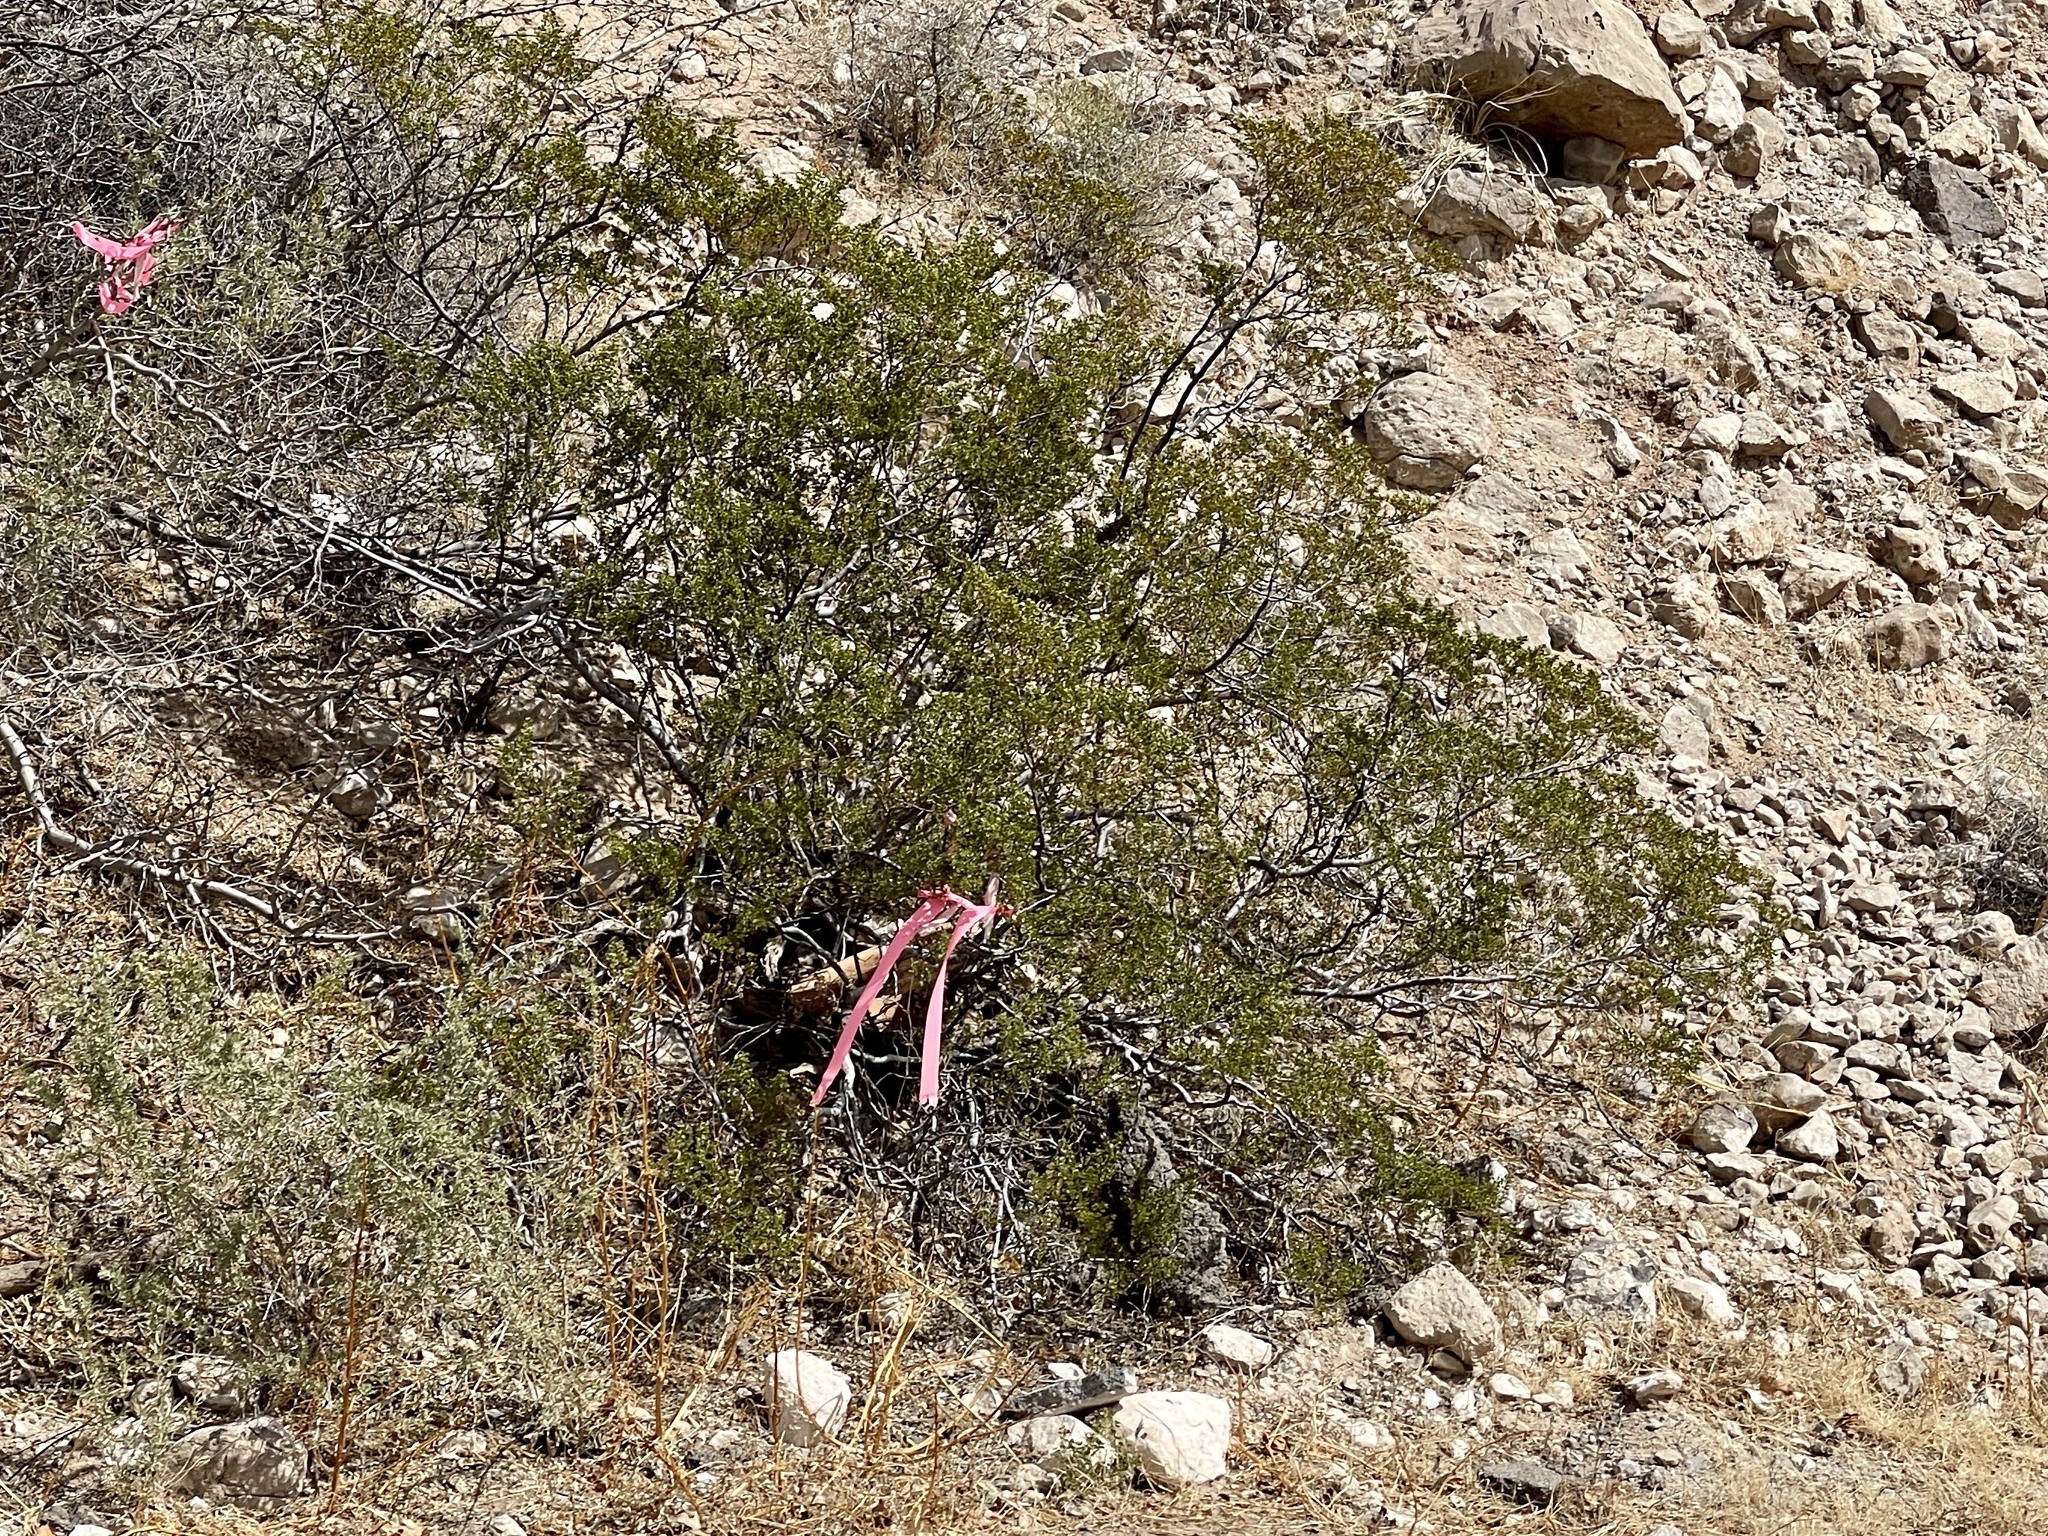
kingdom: Plantae
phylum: Tracheophyta
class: Magnoliopsida
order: Zygophyllales
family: Zygophyllaceae
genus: Larrea
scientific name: Larrea tridentata
